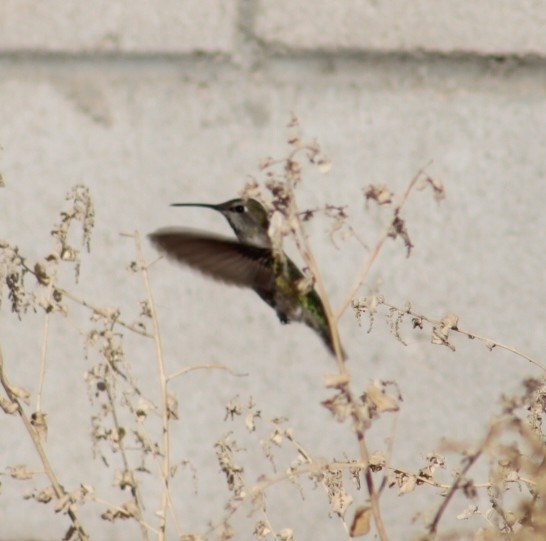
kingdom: Animalia
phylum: Chordata
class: Aves
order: Apodiformes
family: Trochilidae
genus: Calypte
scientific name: Calypte anna
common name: Anna's hummingbird
